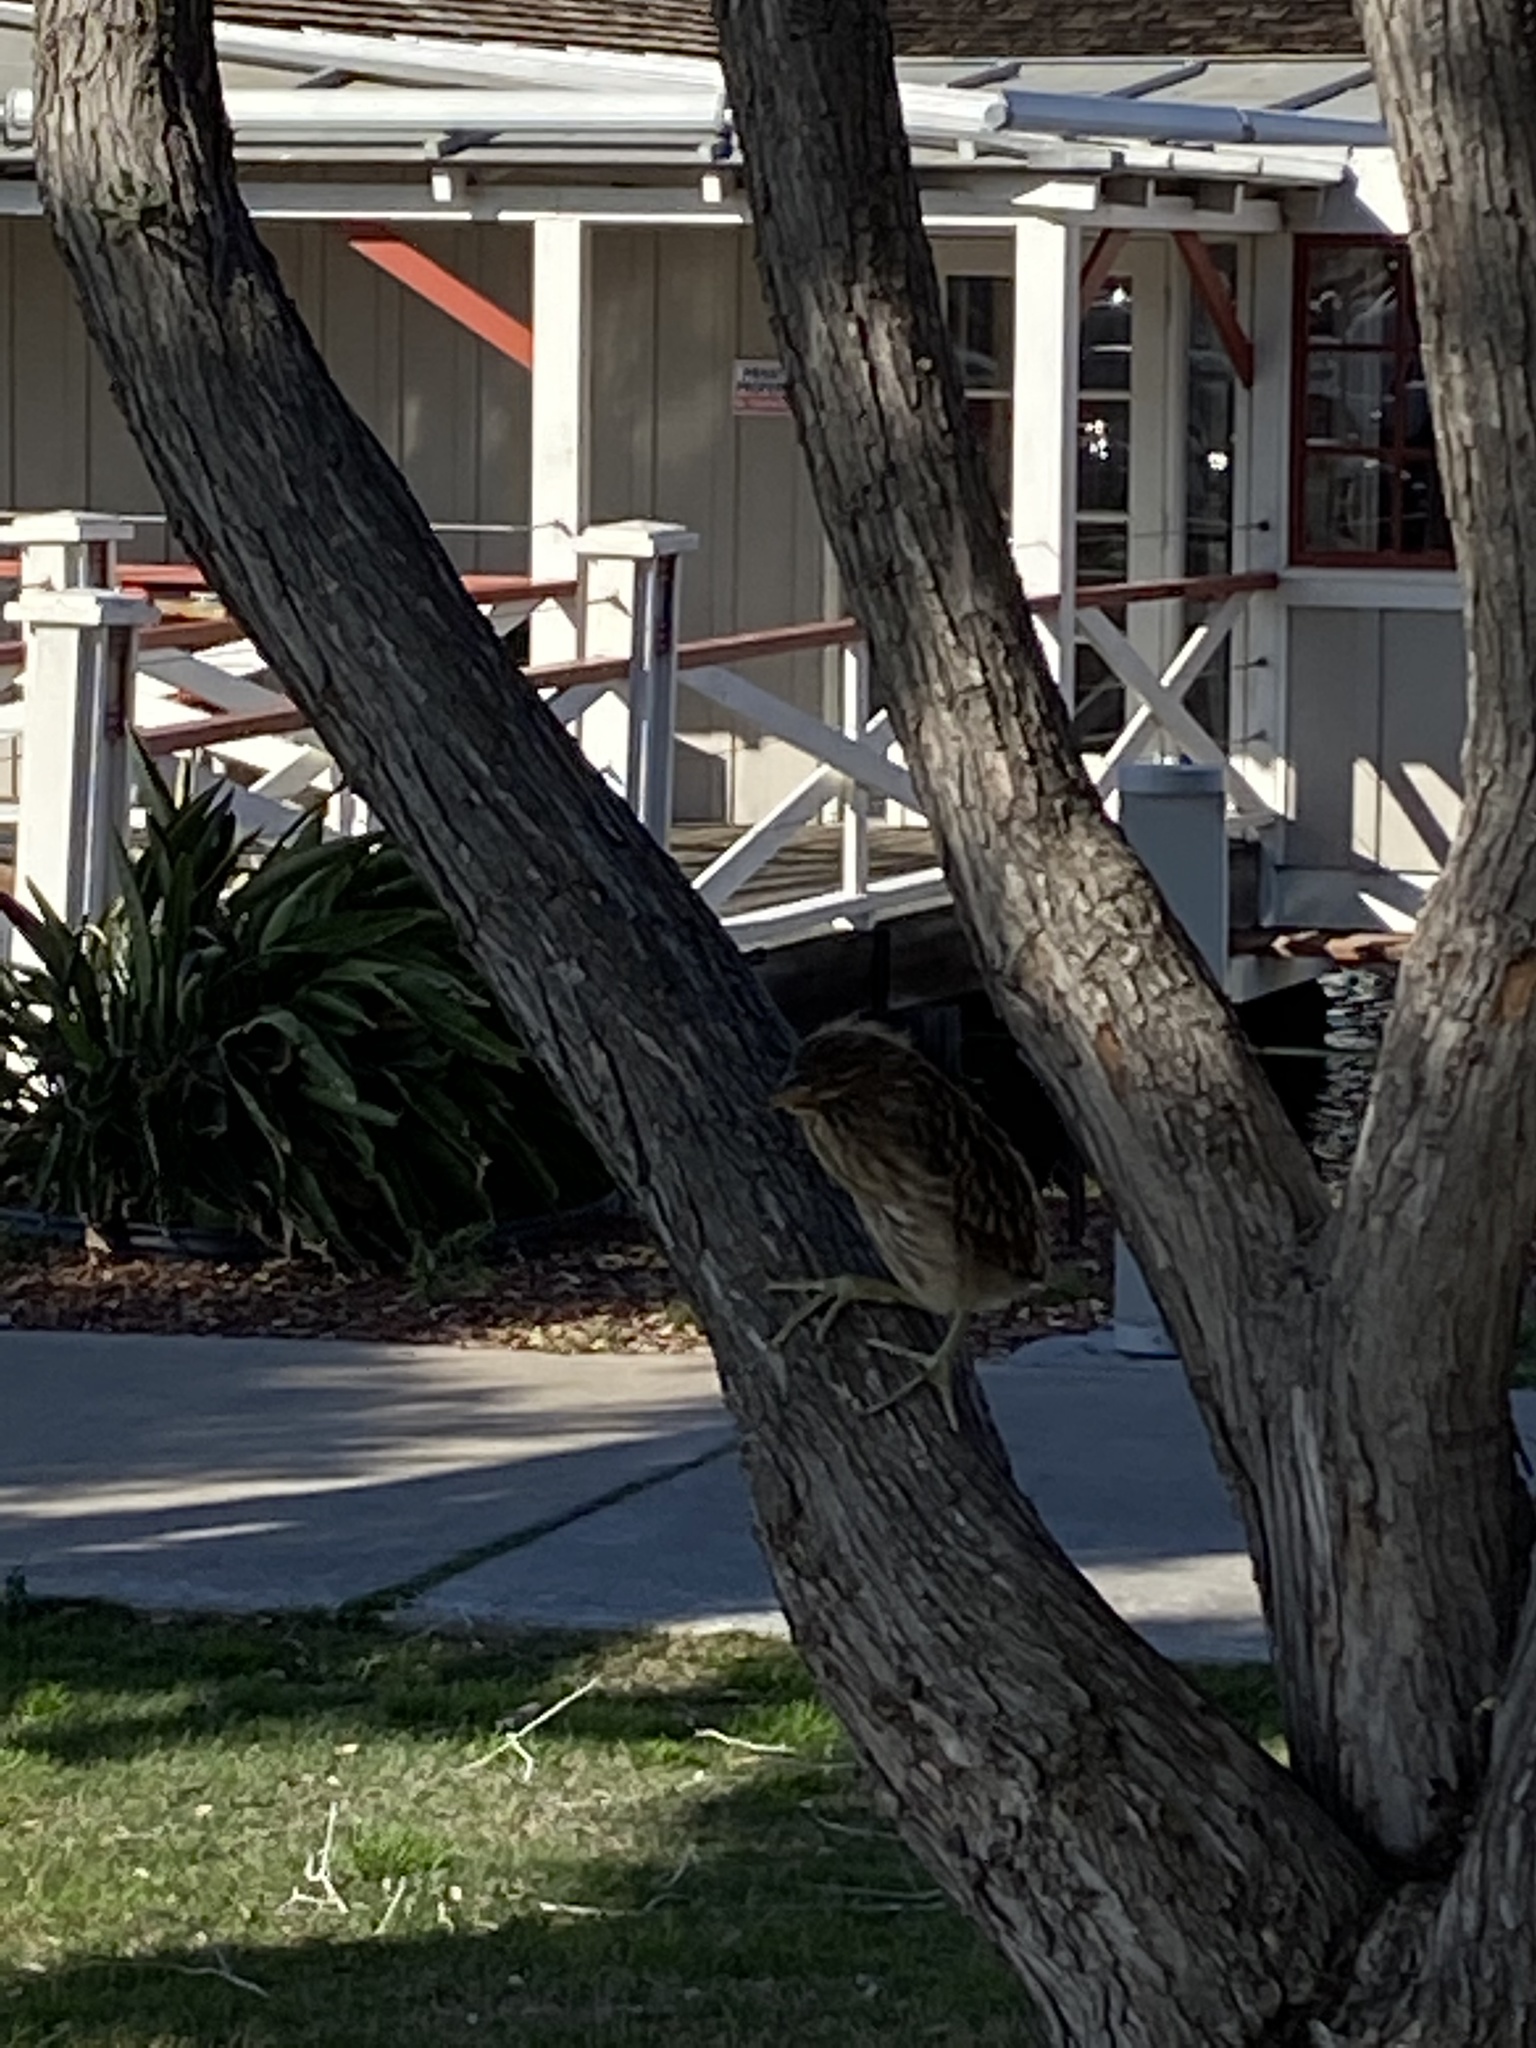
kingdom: Animalia
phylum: Chordata
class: Aves
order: Pelecaniformes
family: Ardeidae
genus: Nycticorax
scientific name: Nycticorax nycticorax
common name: Black-crowned night heron
